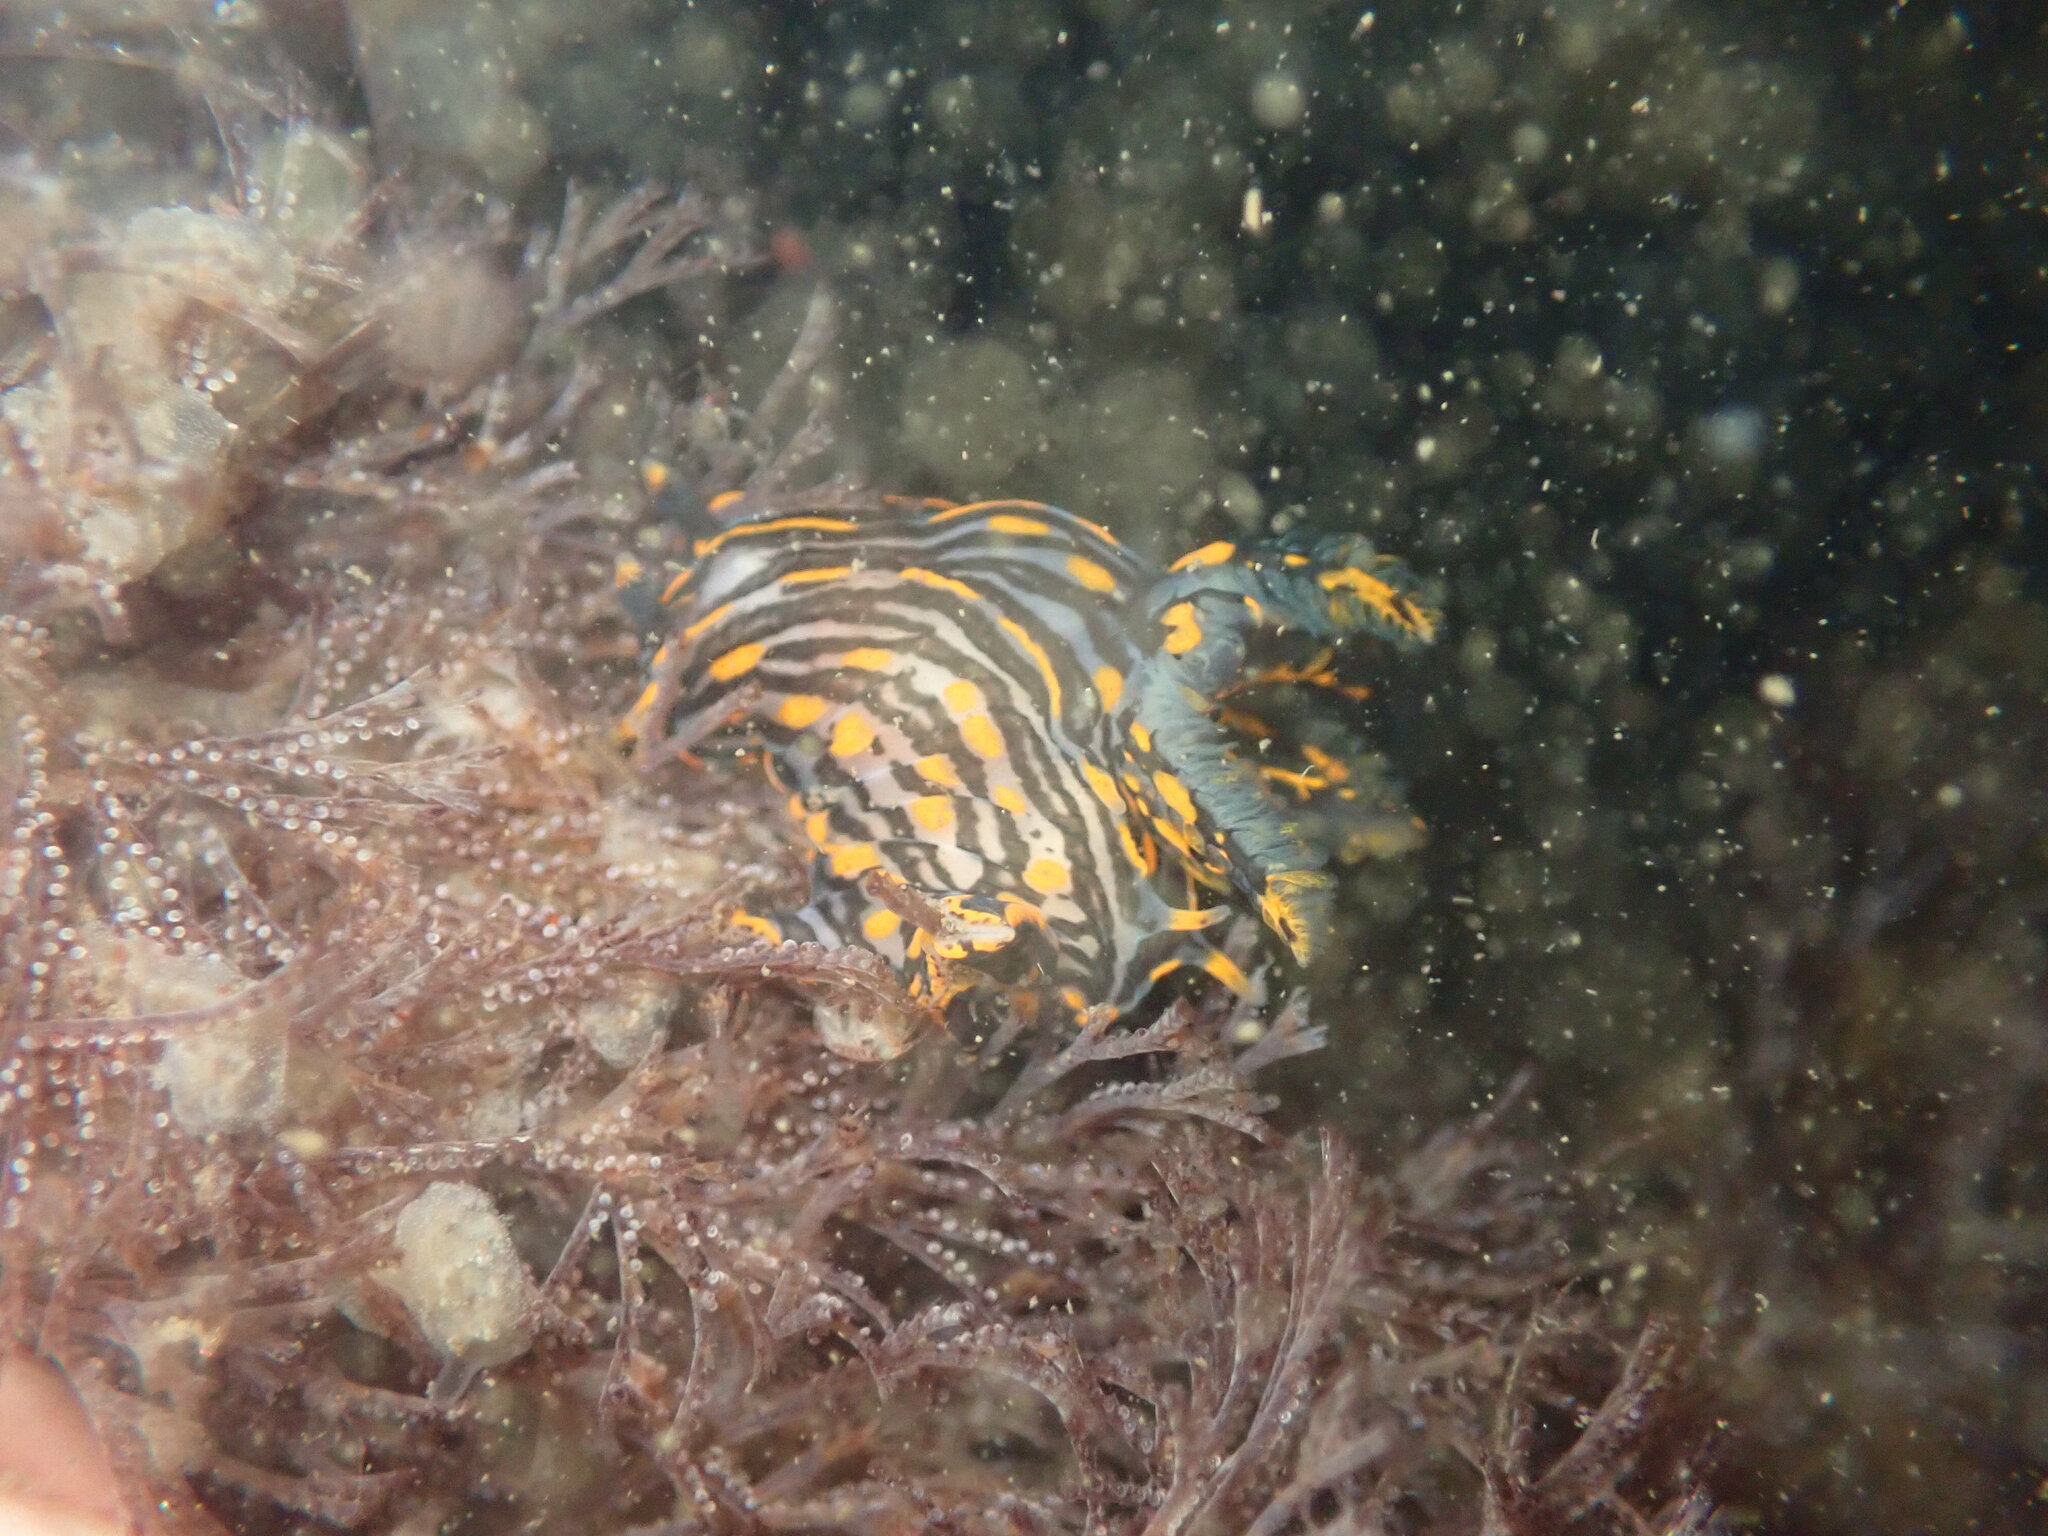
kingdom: Animalia
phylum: Mollusca
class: Gastropoda
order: Nudibranchia
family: Polyceridae
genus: Polycera
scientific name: Polycera atra
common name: Orange-spike polycera
